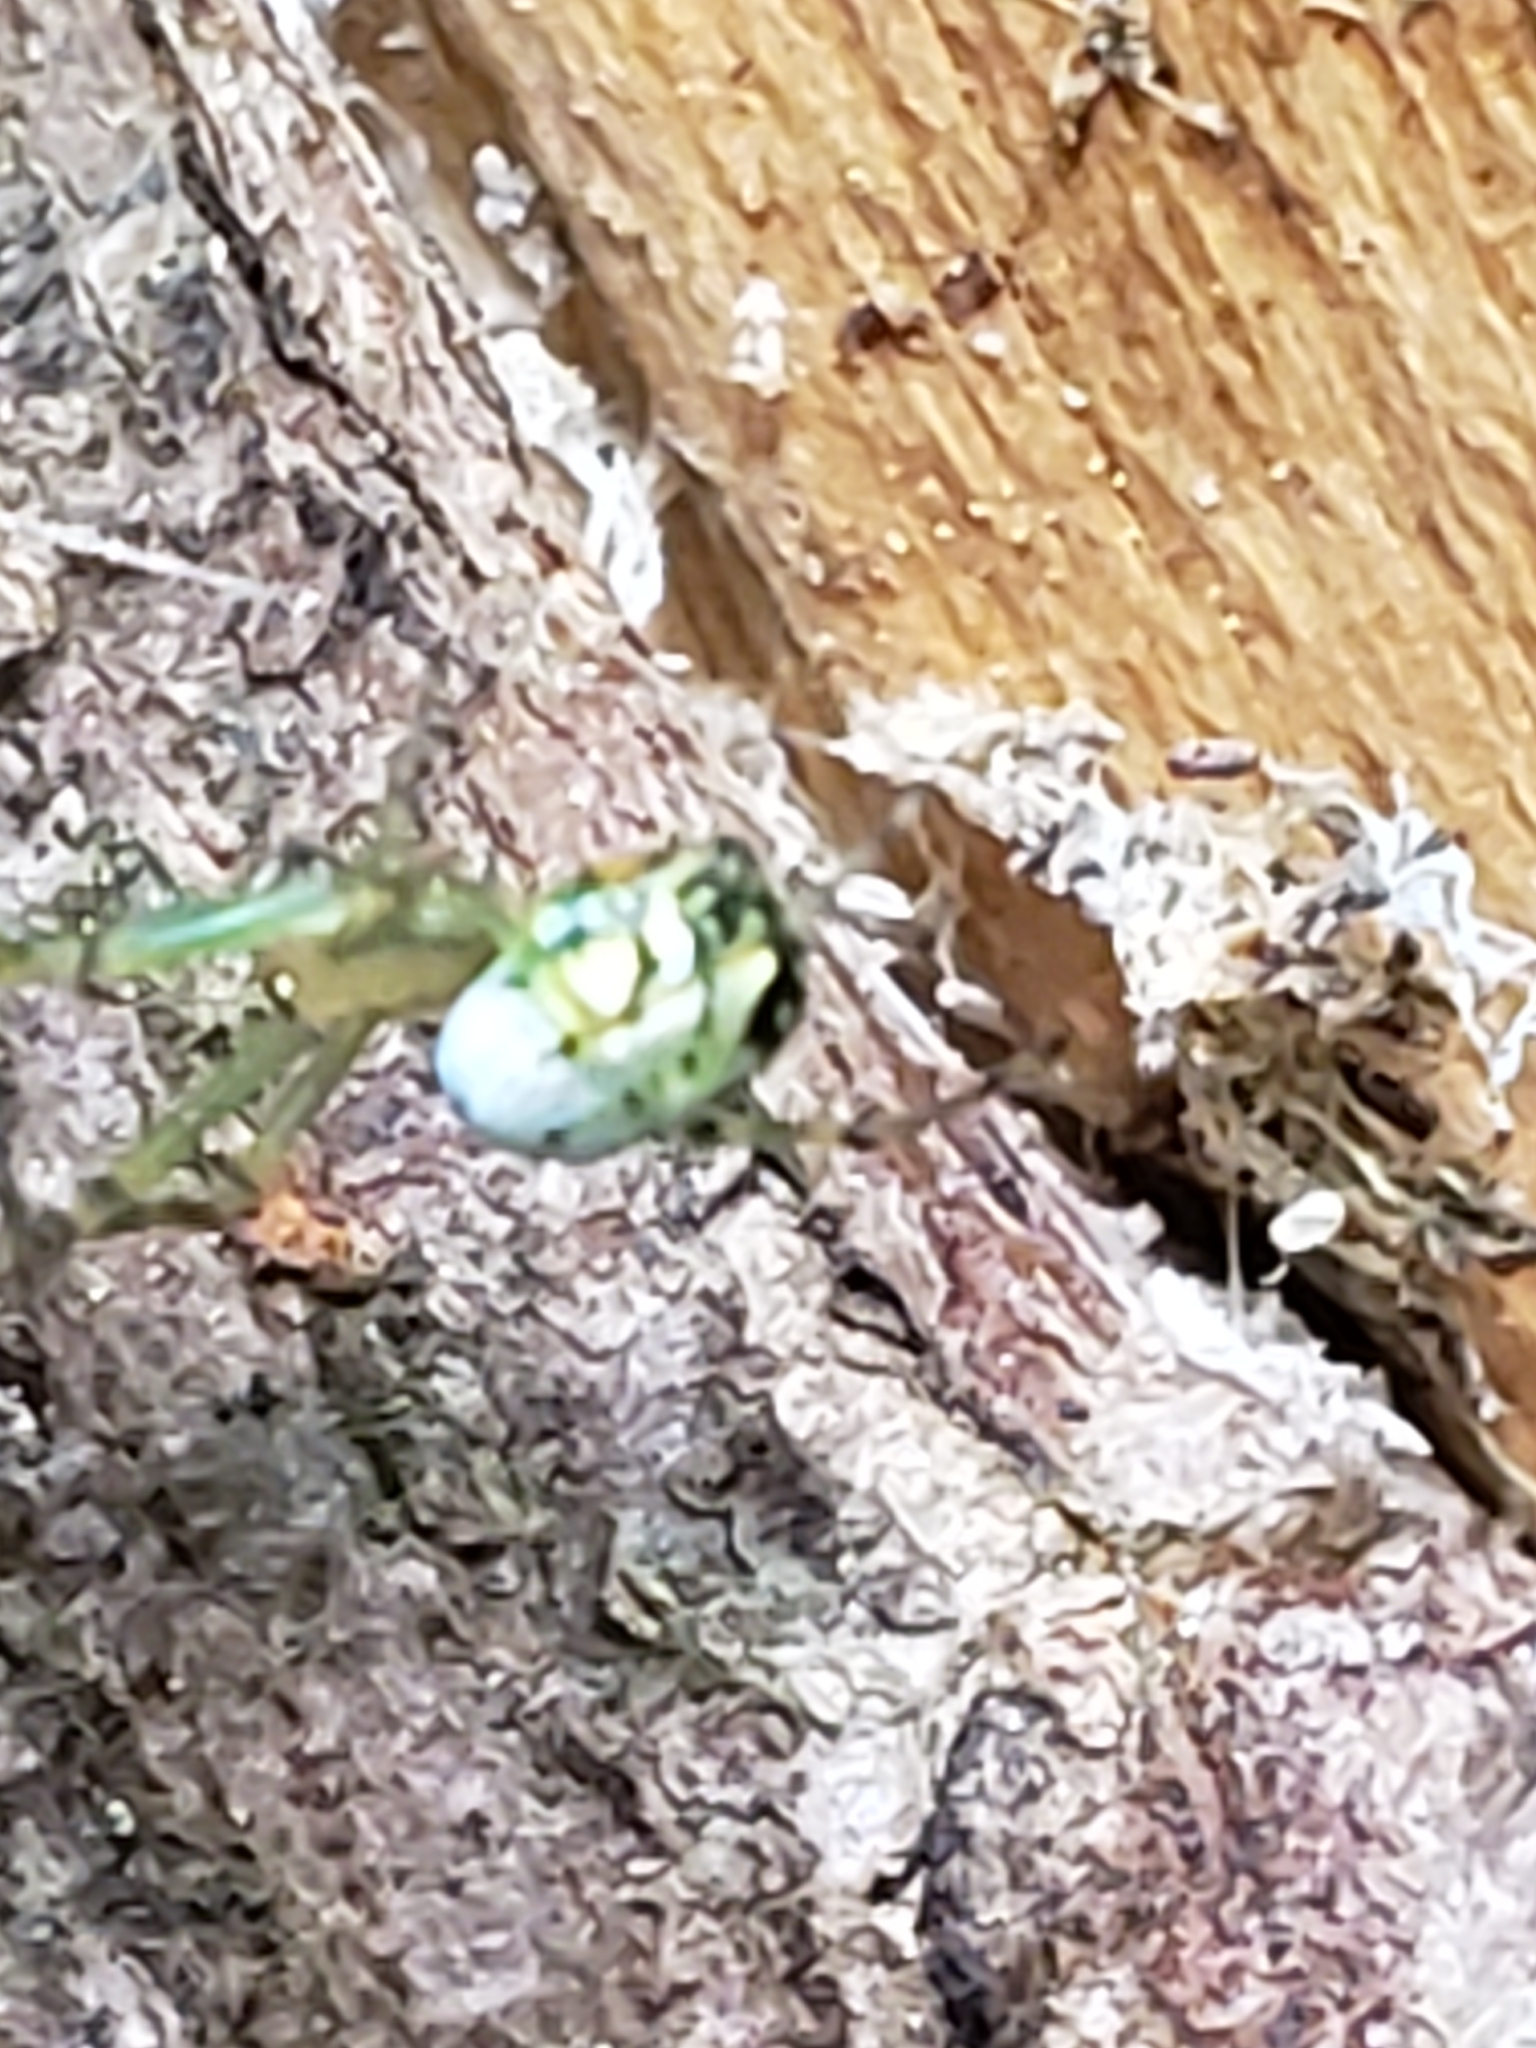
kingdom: Animalia
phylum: Arthropoda
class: Arachnida
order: Araneae
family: Tetragnathidae
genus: Leucauge
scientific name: Leucauge venusta
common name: Longjawed orb weavers
